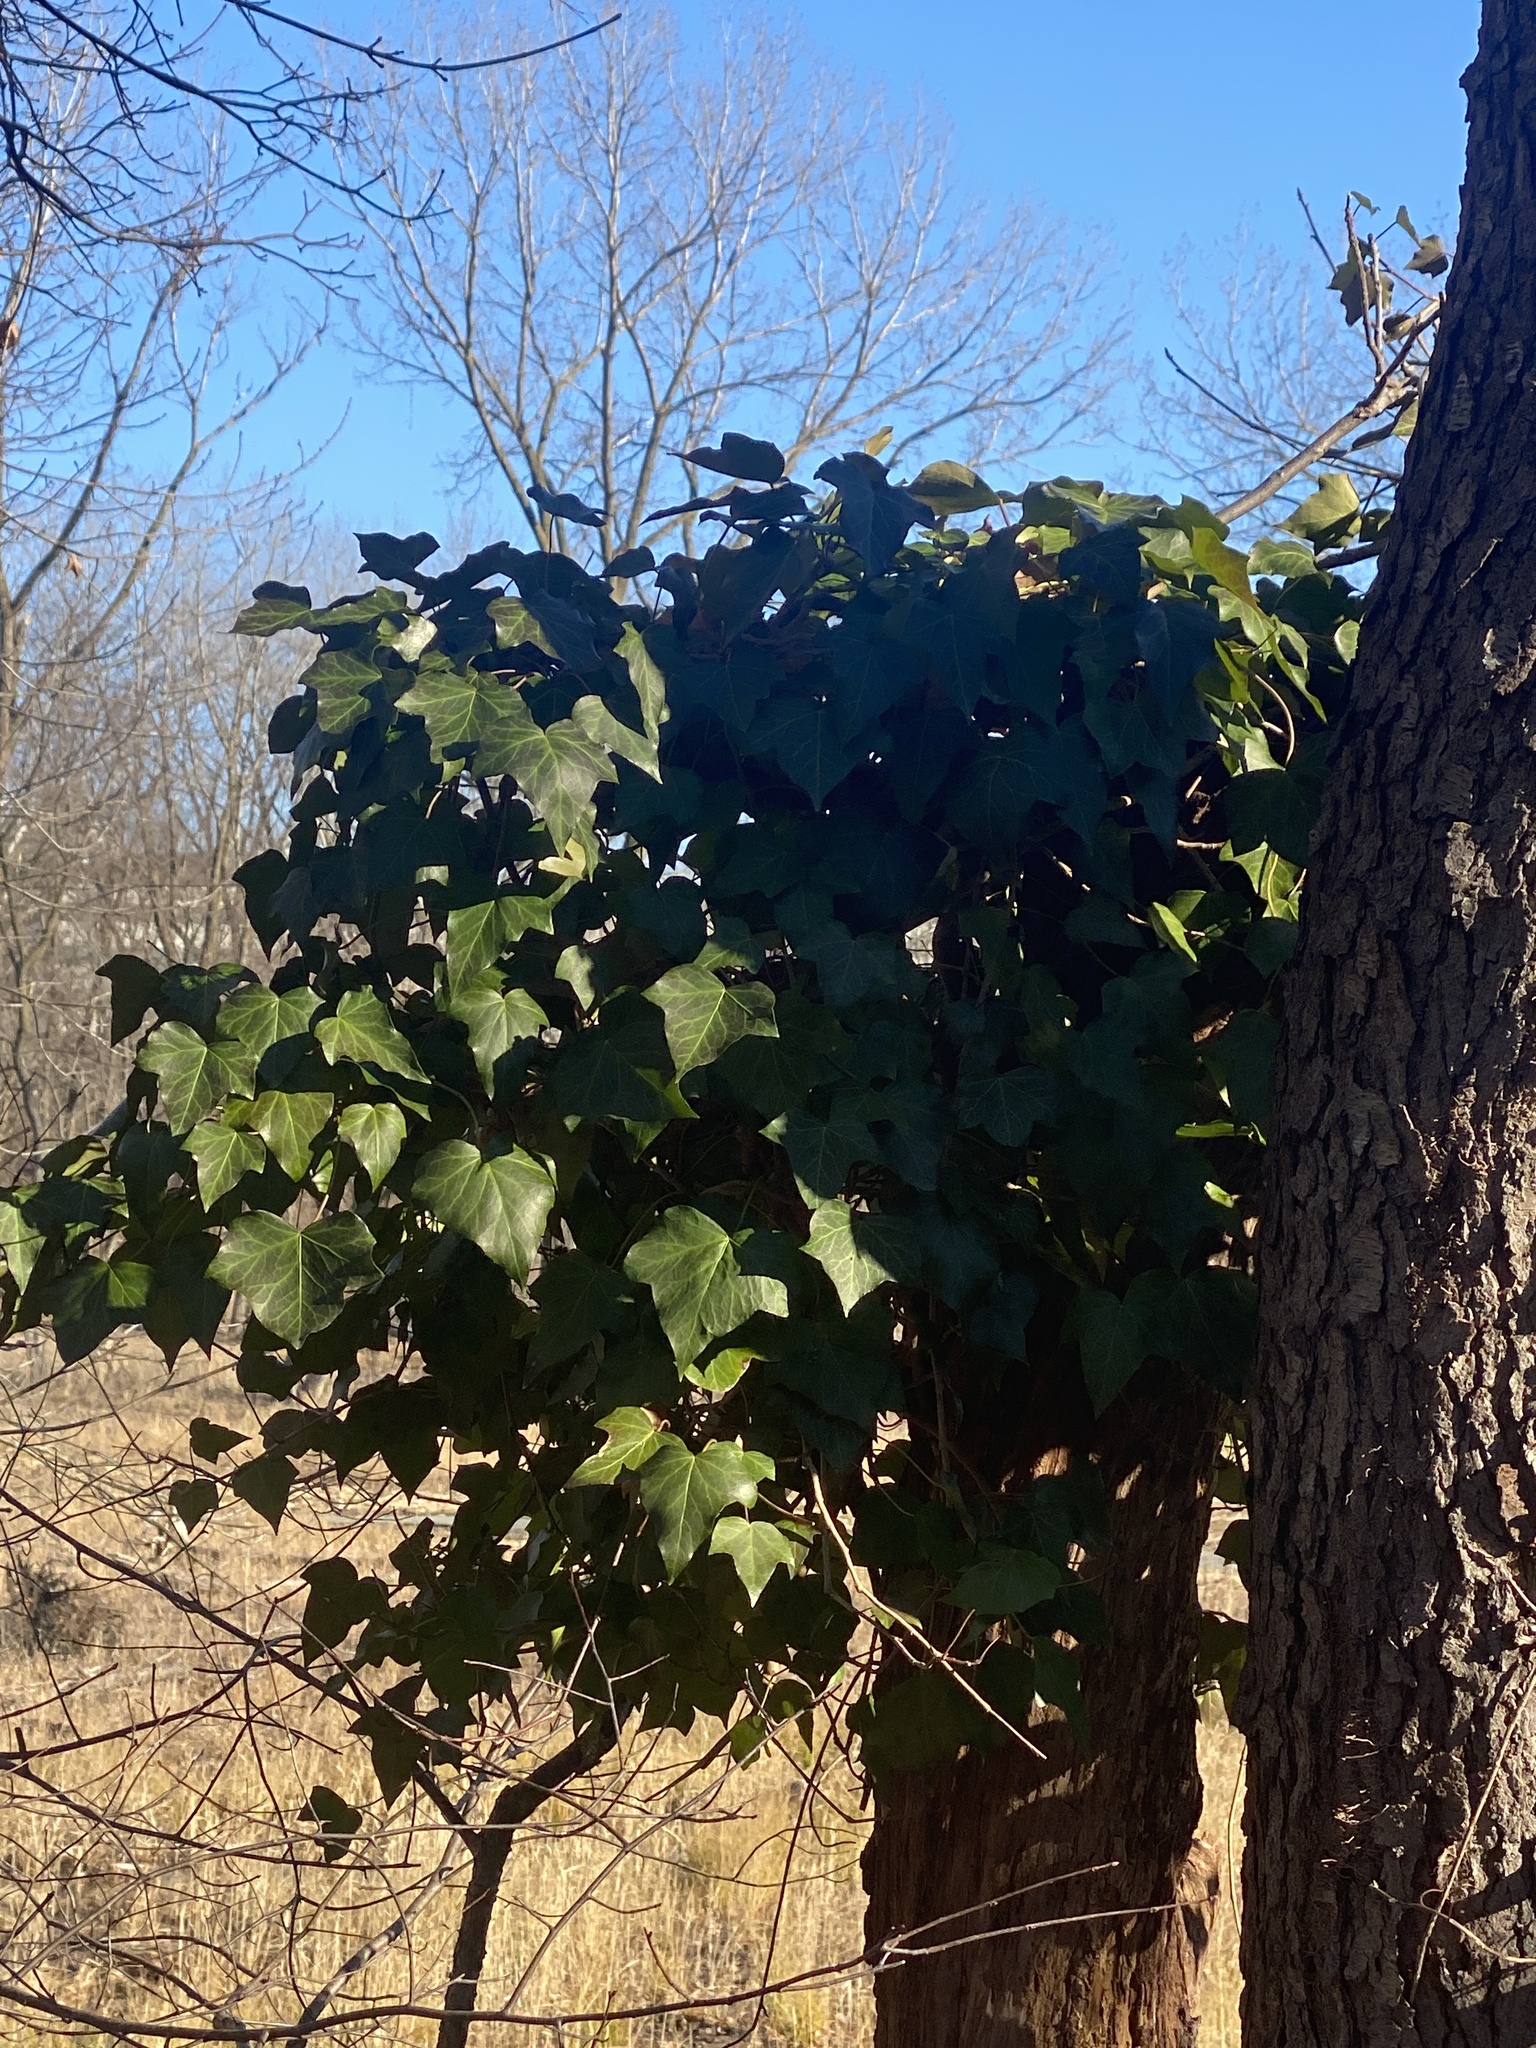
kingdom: Plantae
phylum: Tracheophyta
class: Magnoliopsida
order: Apiales
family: Araliaceae
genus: Hedera
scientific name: Hedera
